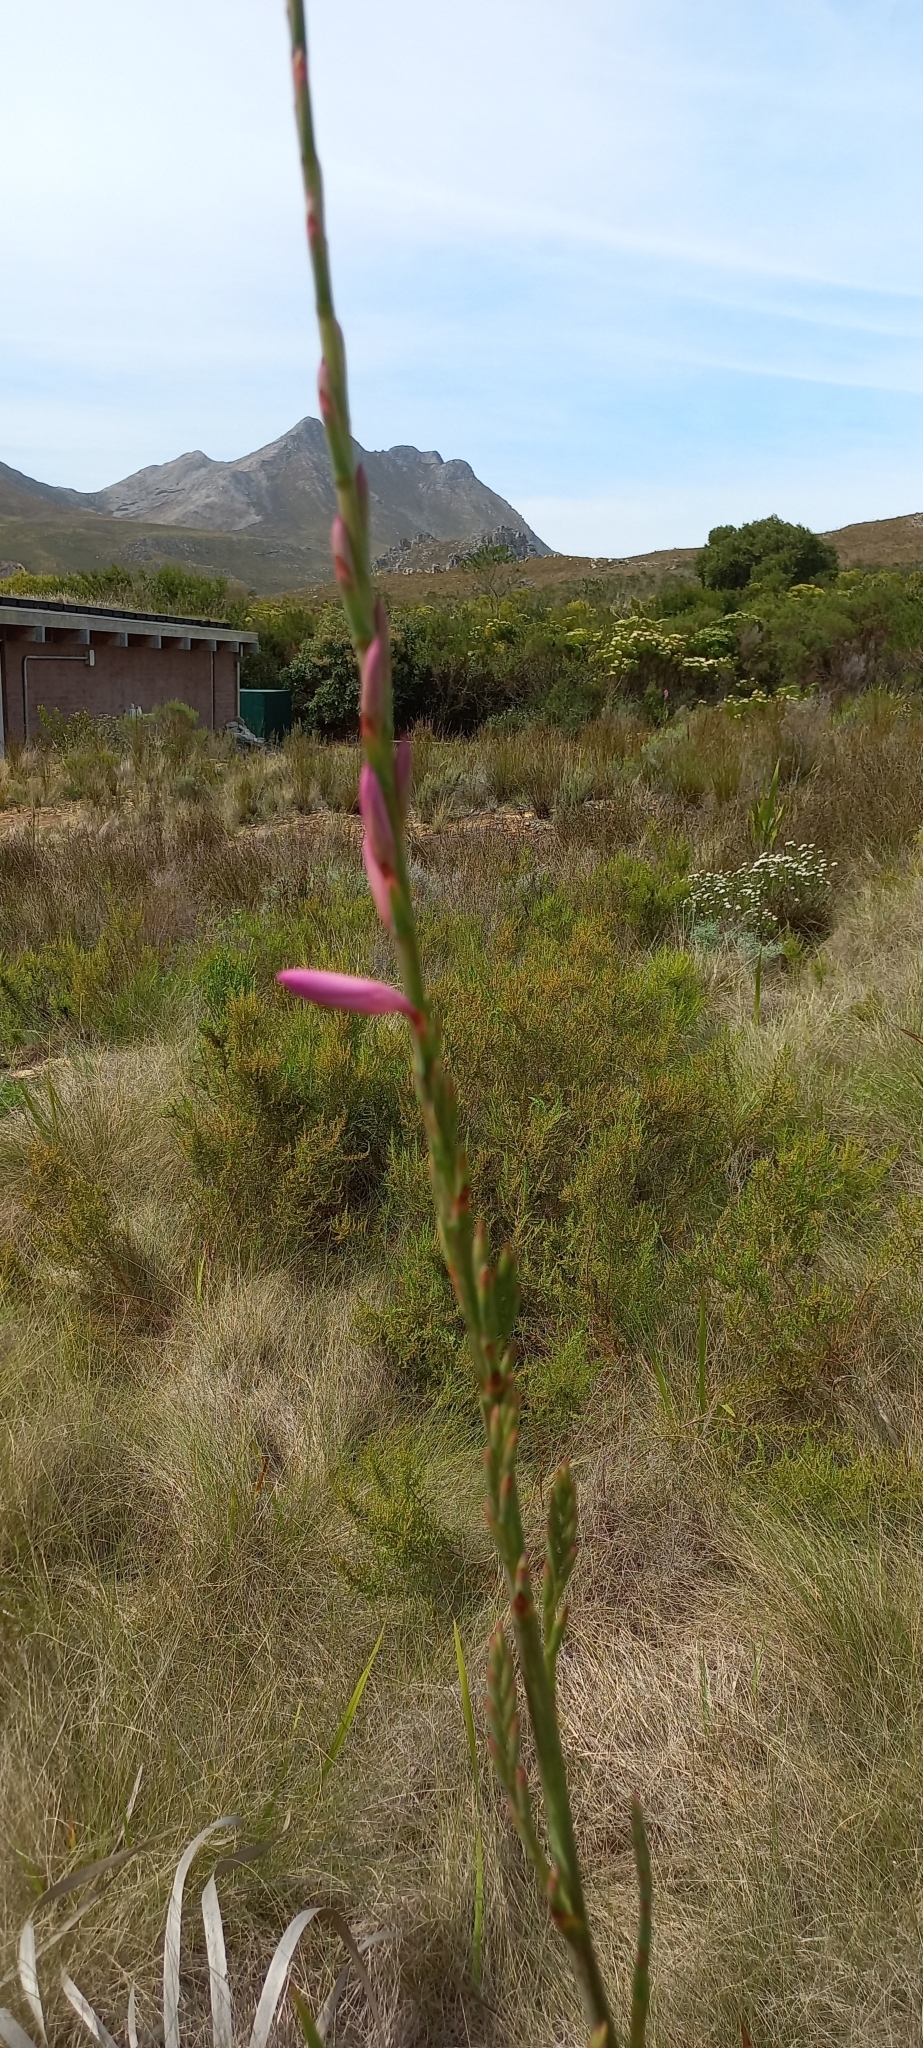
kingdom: Plantae
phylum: Tracheophyta
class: Liliopsida
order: Asparagales
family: Iridaceae
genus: Watsonia
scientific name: Watsonia borbonica
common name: Bugle-lily
